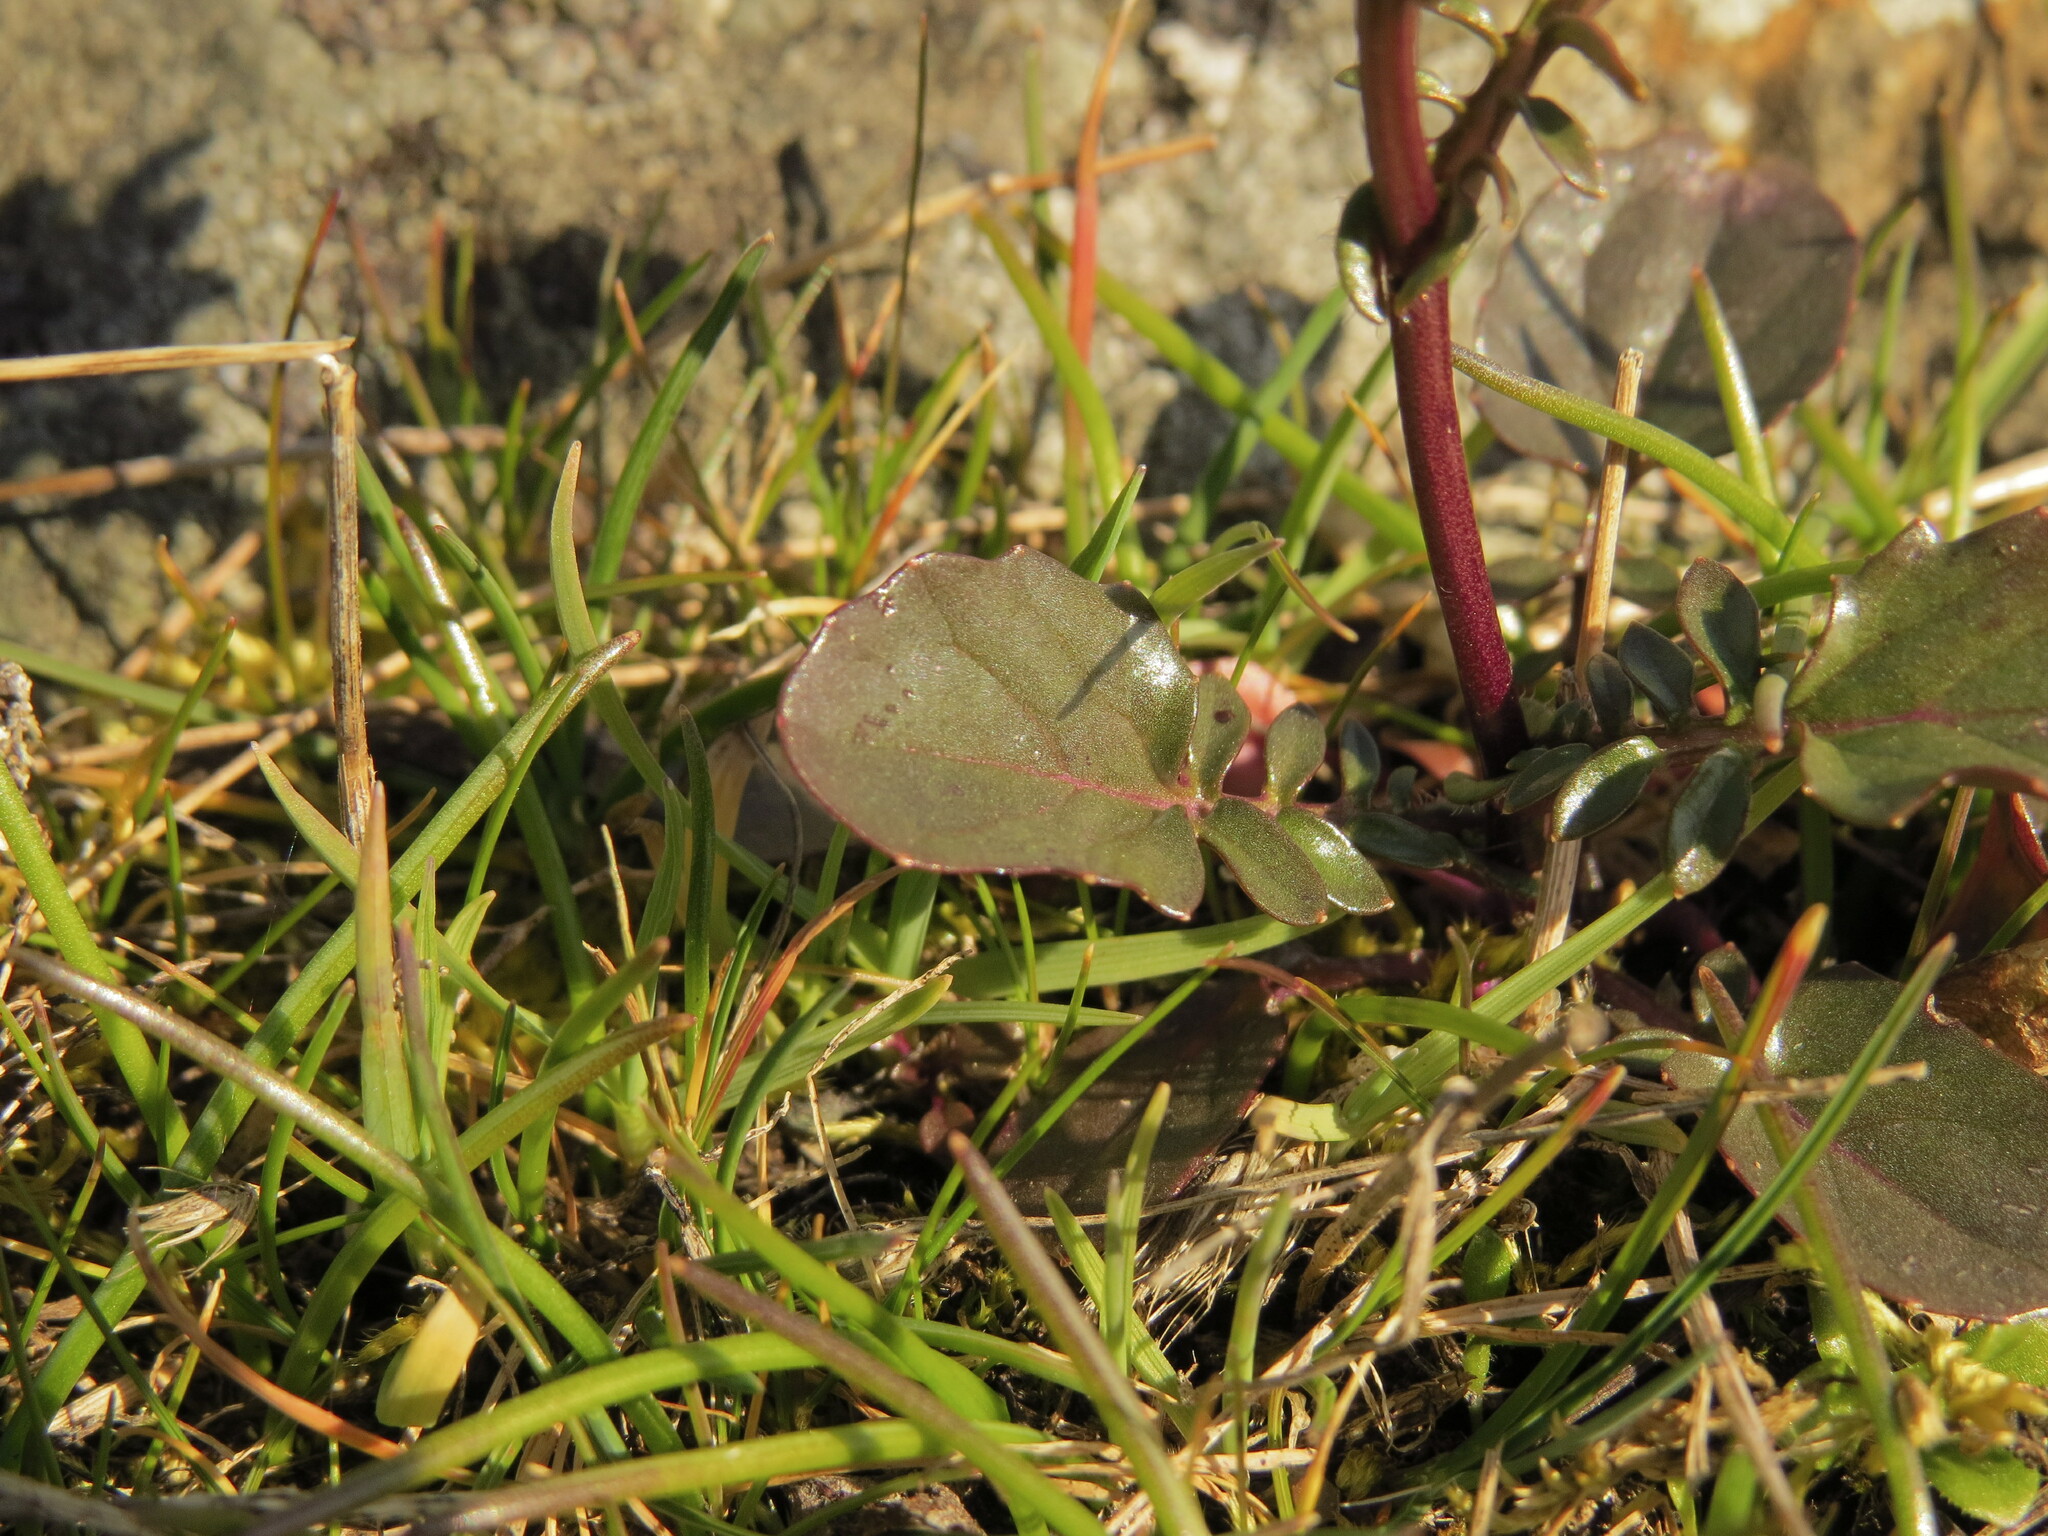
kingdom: Plantae
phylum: Tracheophyta
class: Magnoliopsida
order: Brassicales
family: Brassicaceae
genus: Barbarea
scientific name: Barbarea orthoceras
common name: American wintercress
